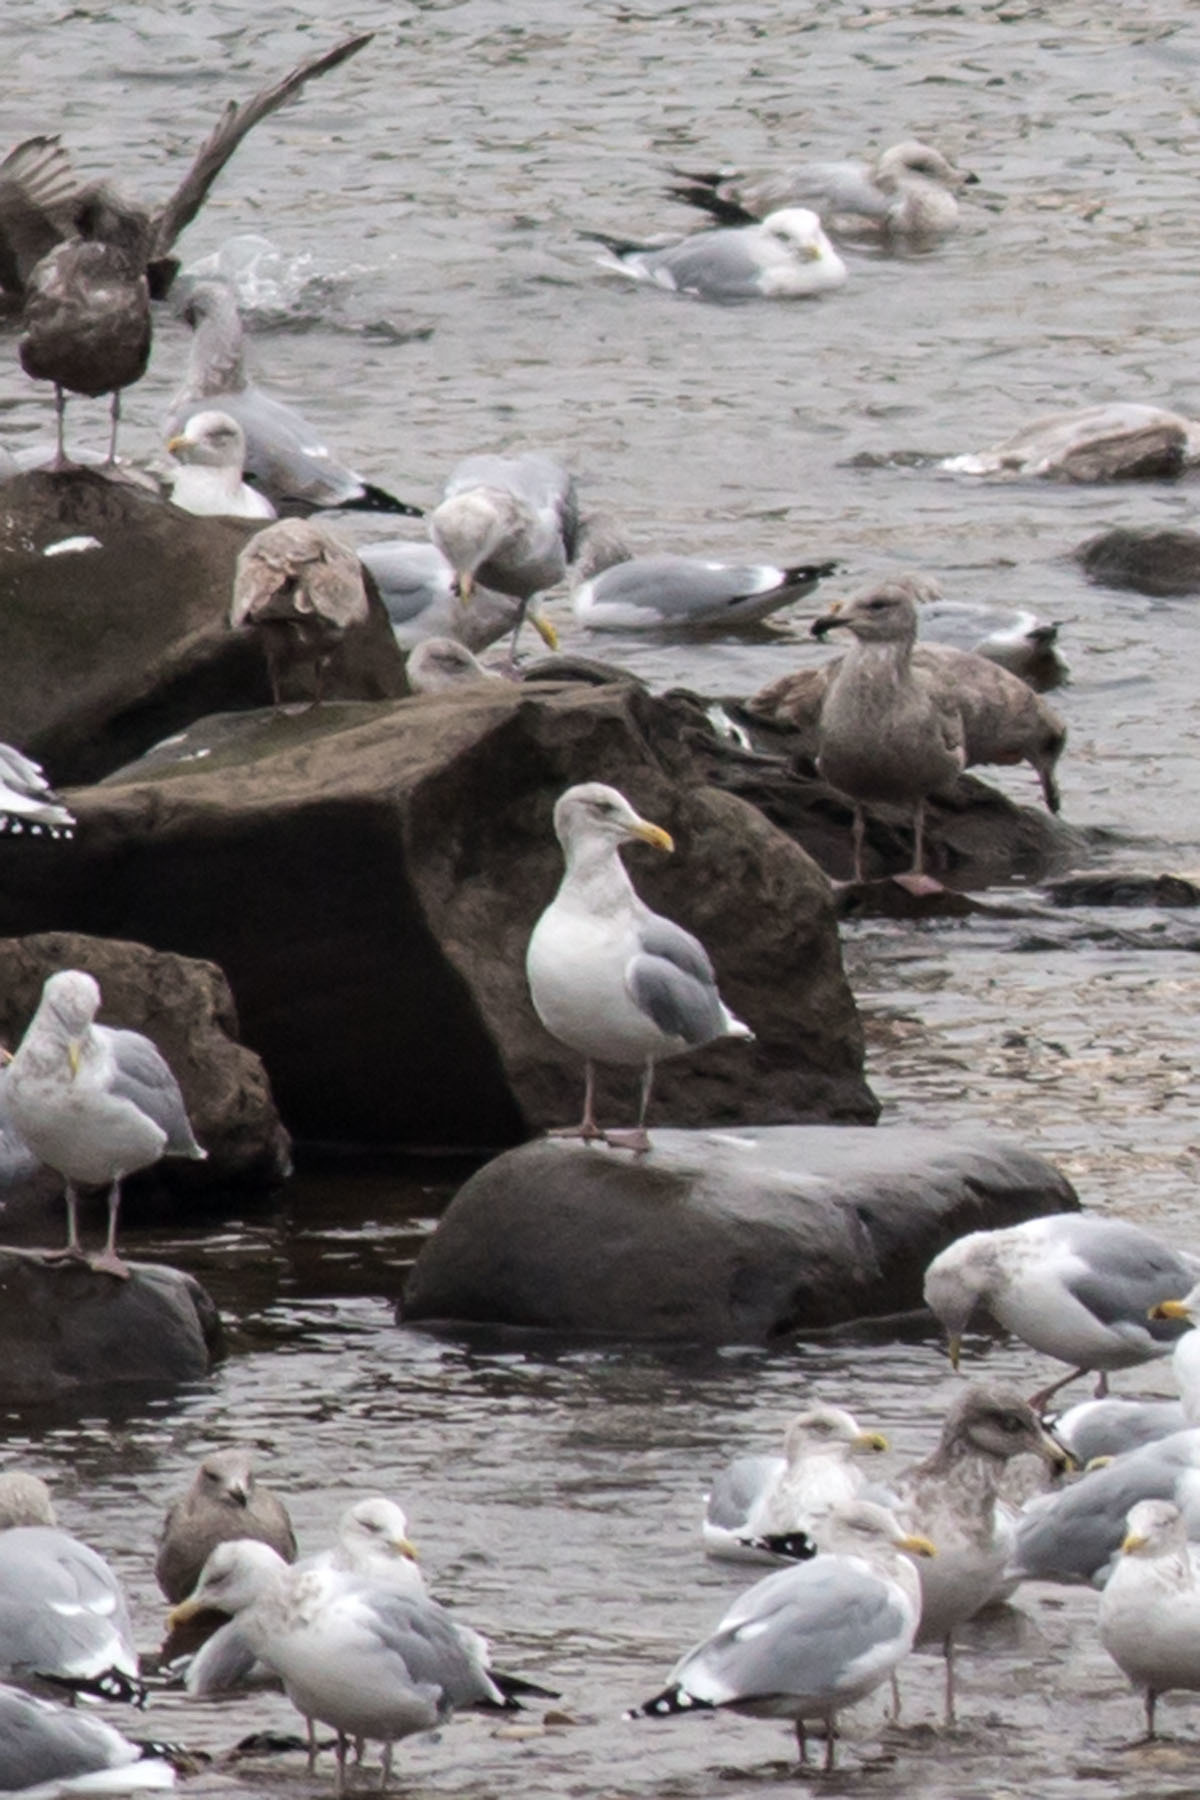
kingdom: Animalia
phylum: Chordata
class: Aves
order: Charadriiformes
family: Laridae
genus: Larus
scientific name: Larus argentatus
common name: Herring gull
